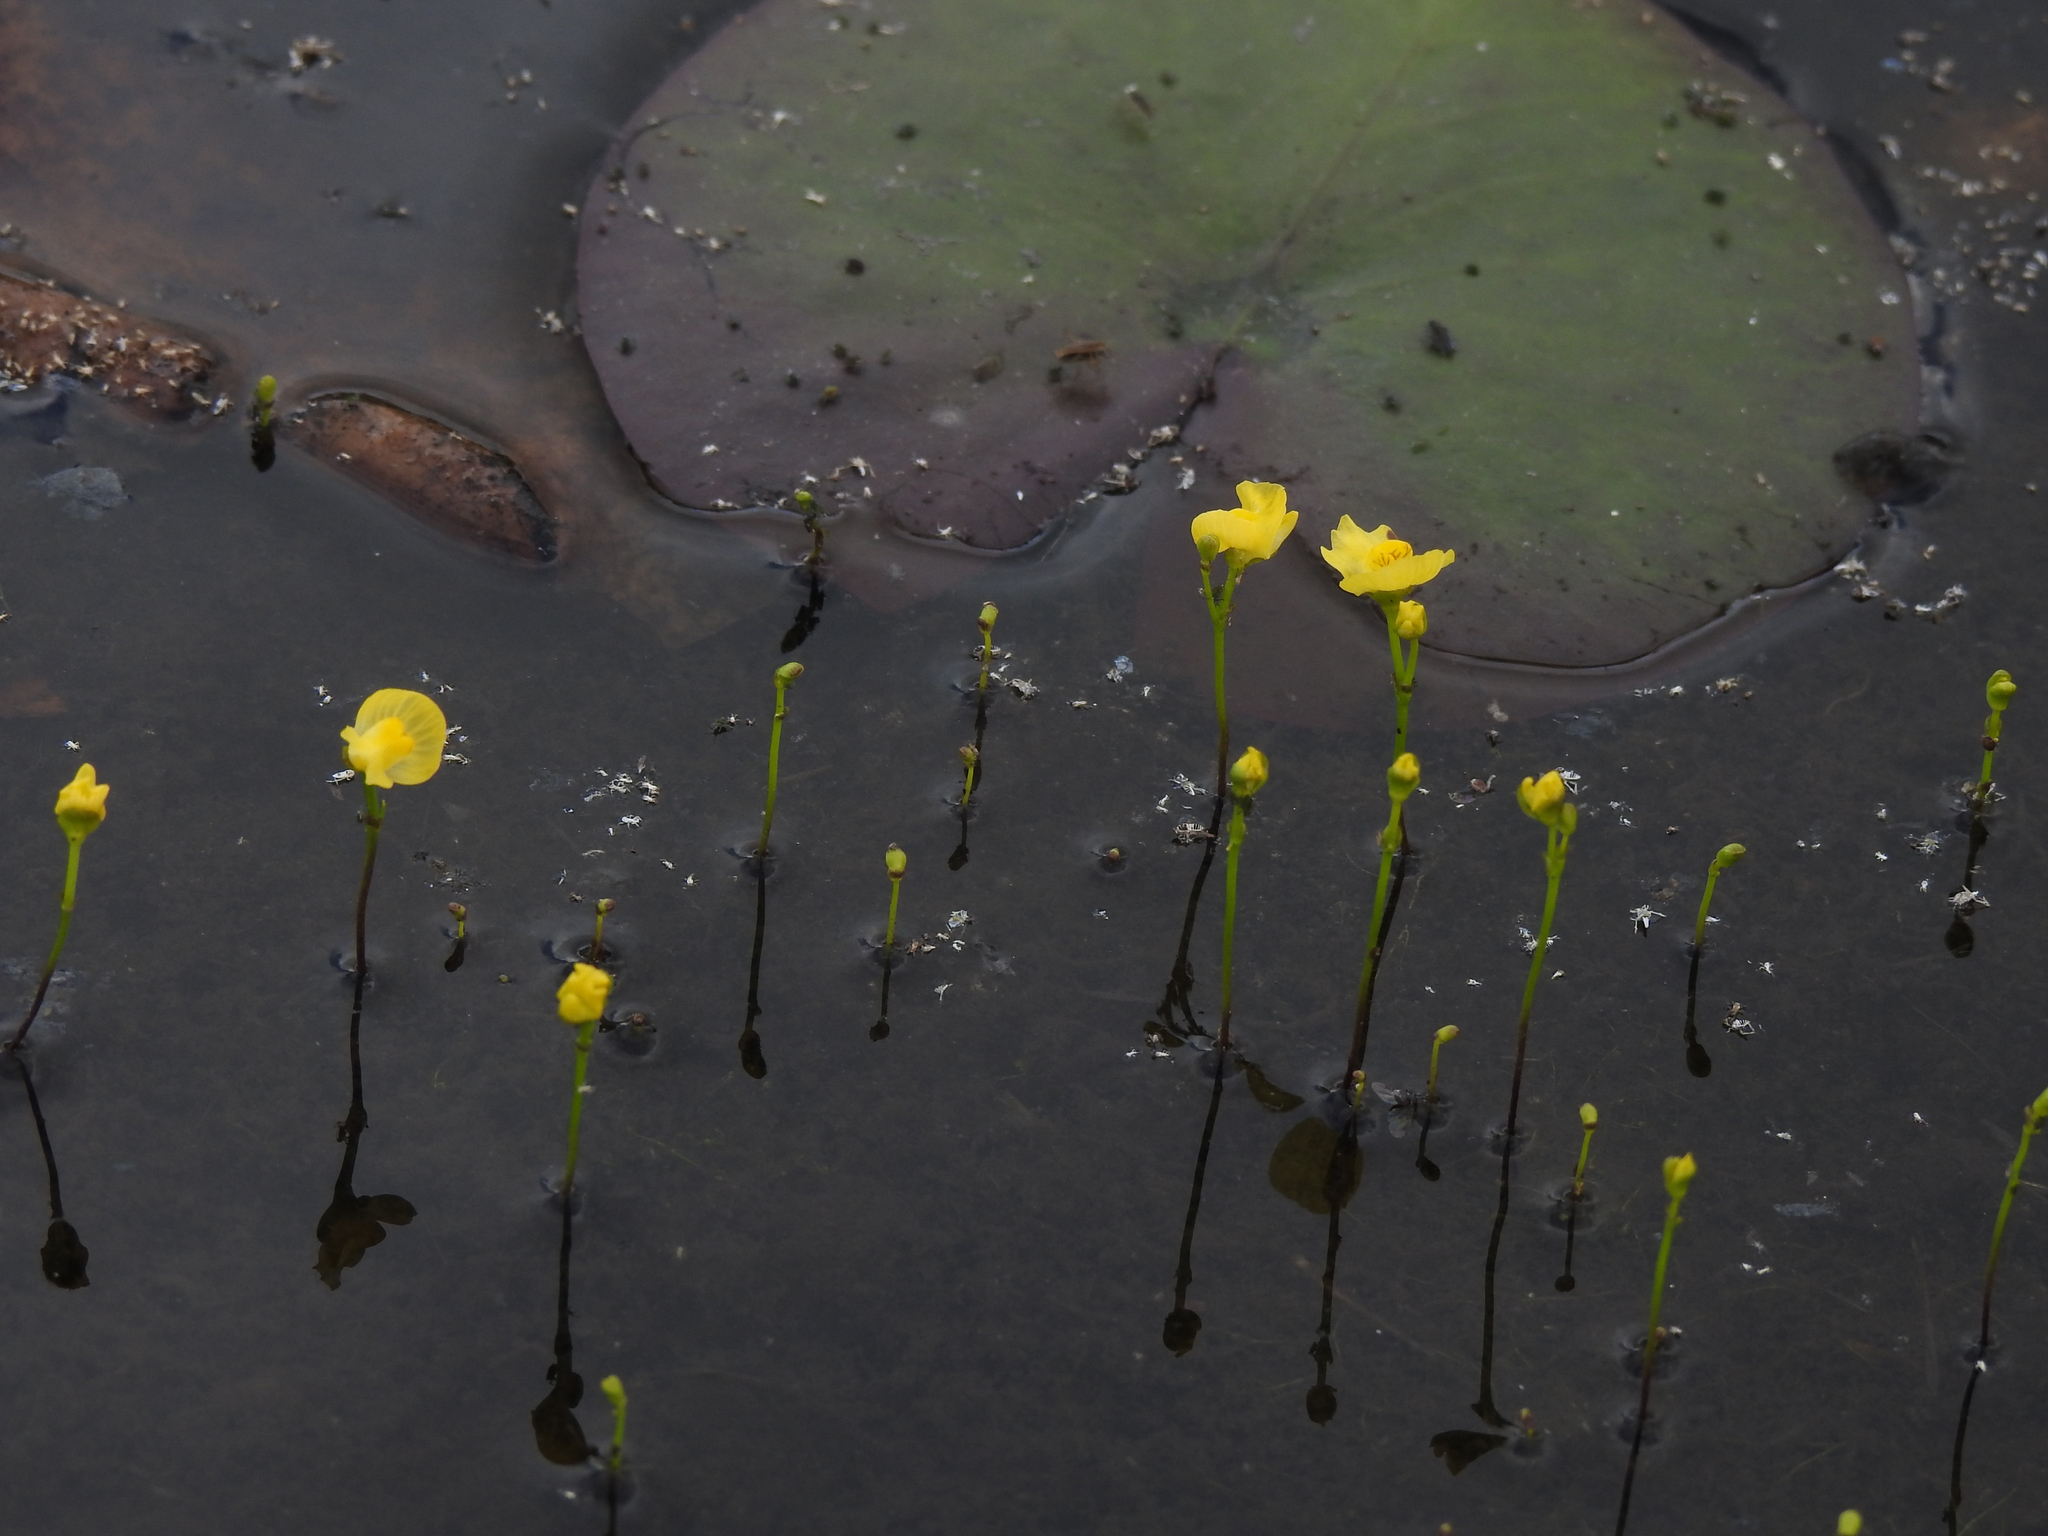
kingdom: Plantae
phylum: Tracheophyta
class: Magnoliopsida
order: Lamiales
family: Lentibulariaceae
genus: Utricularia
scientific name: Utricularia gibba
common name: Humped bladderwort
